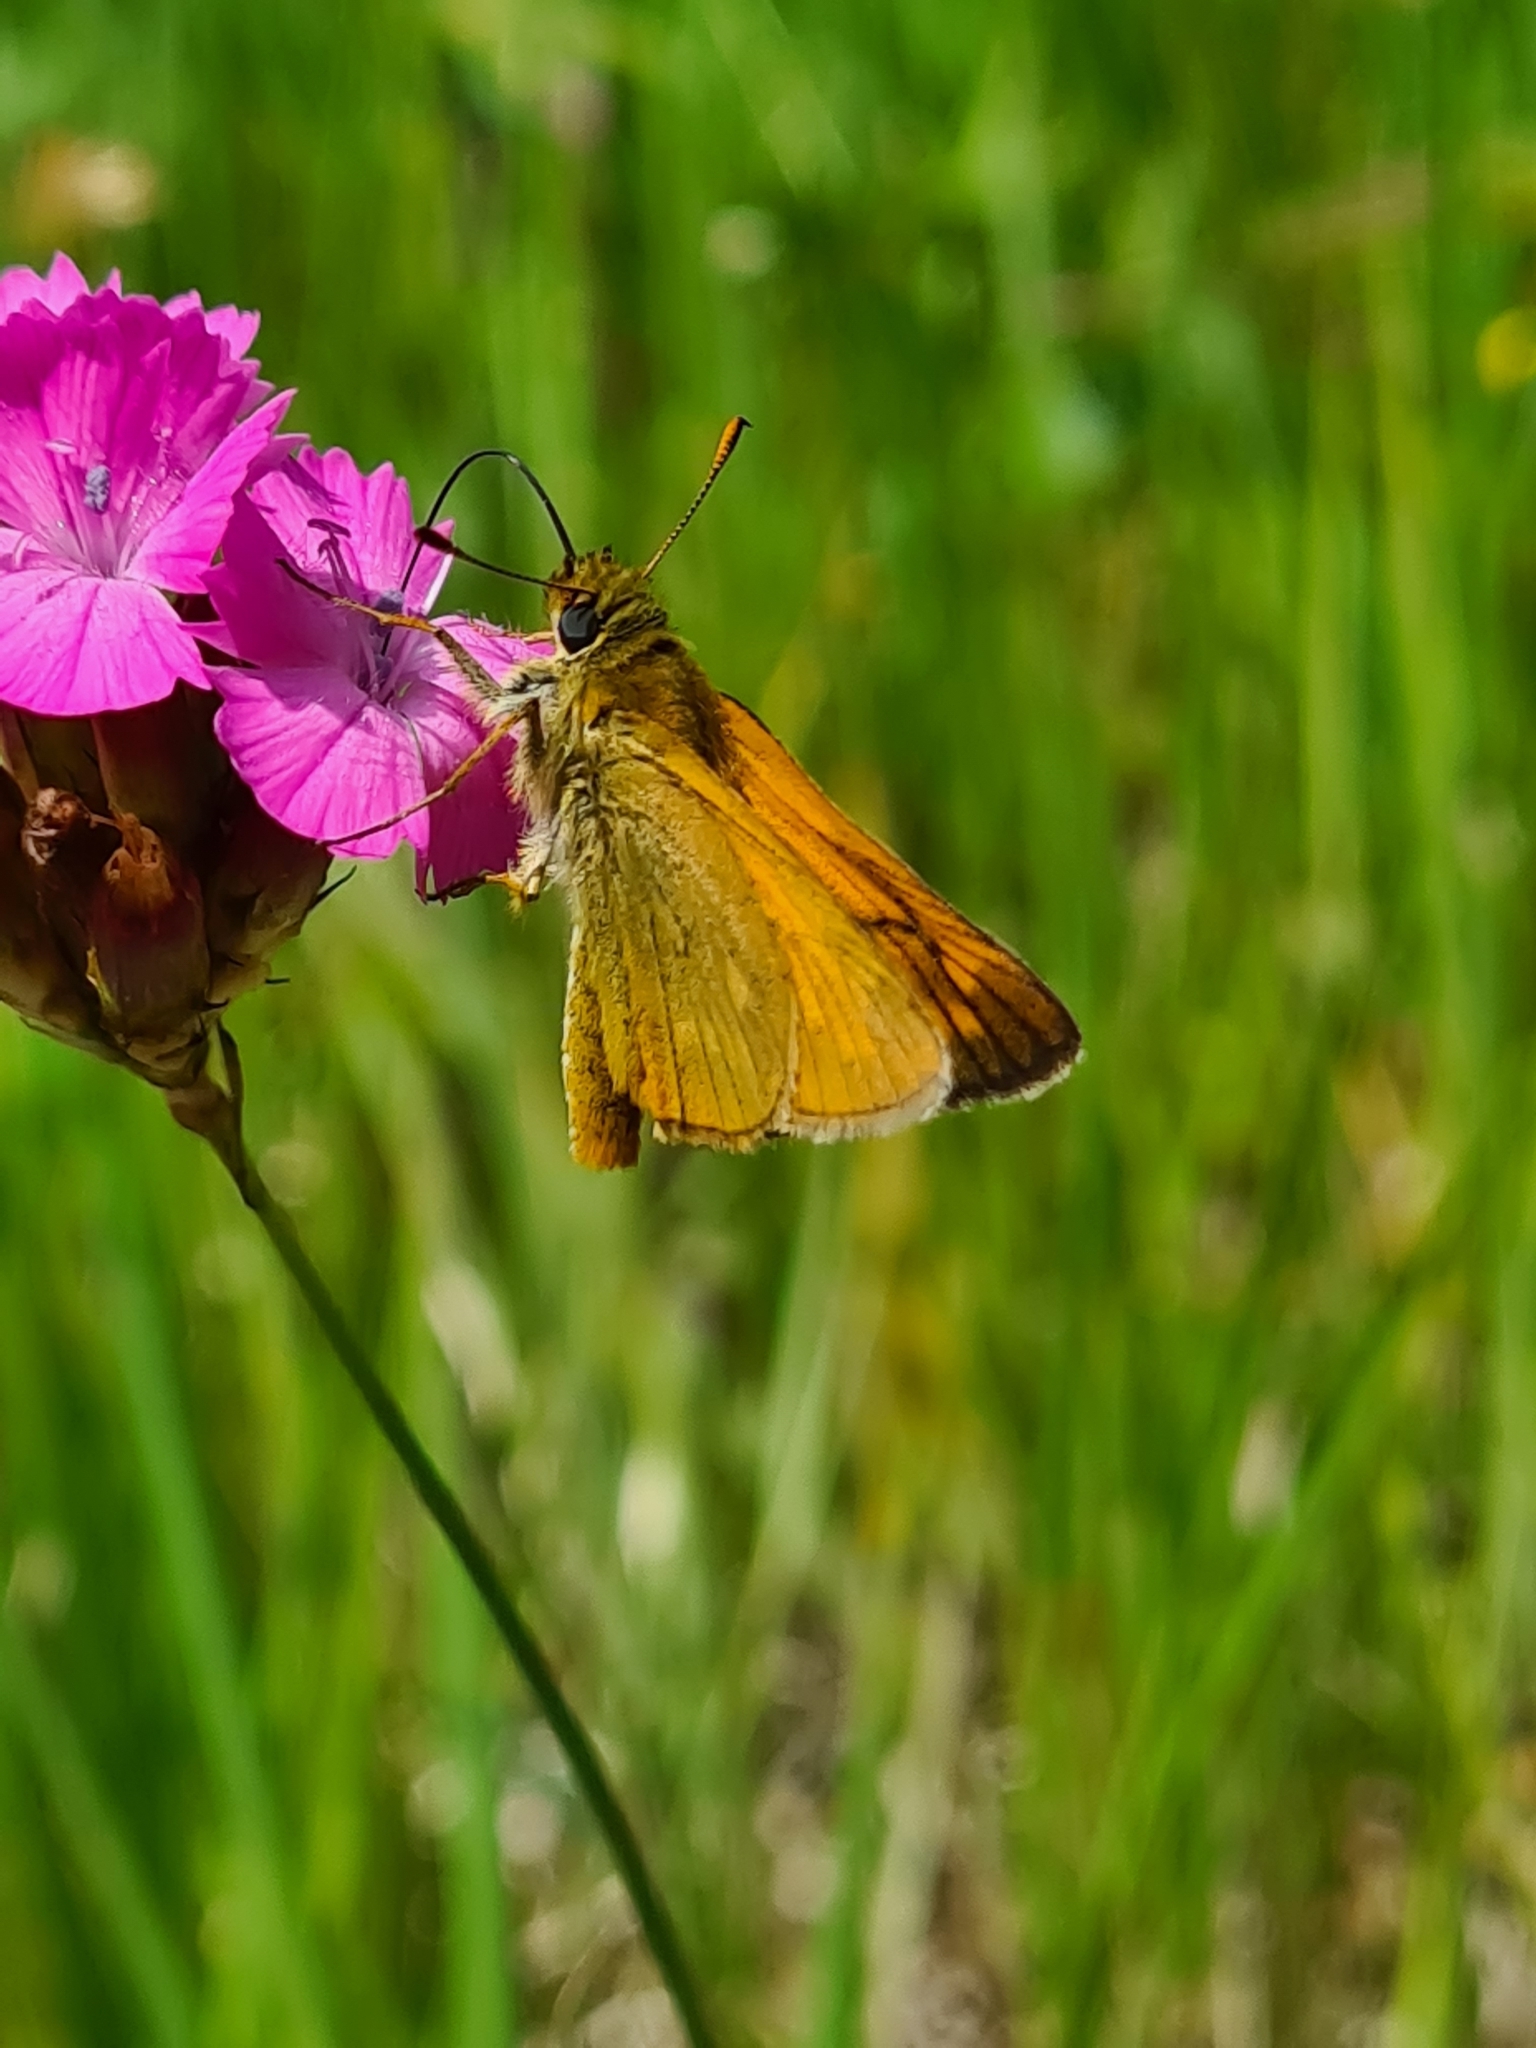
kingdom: Animalia
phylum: Arthropoda
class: Insecta
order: Lepidoptera
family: Hesperiidae
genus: Ochlodes
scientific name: Ochlodes venata
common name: Large skipper
